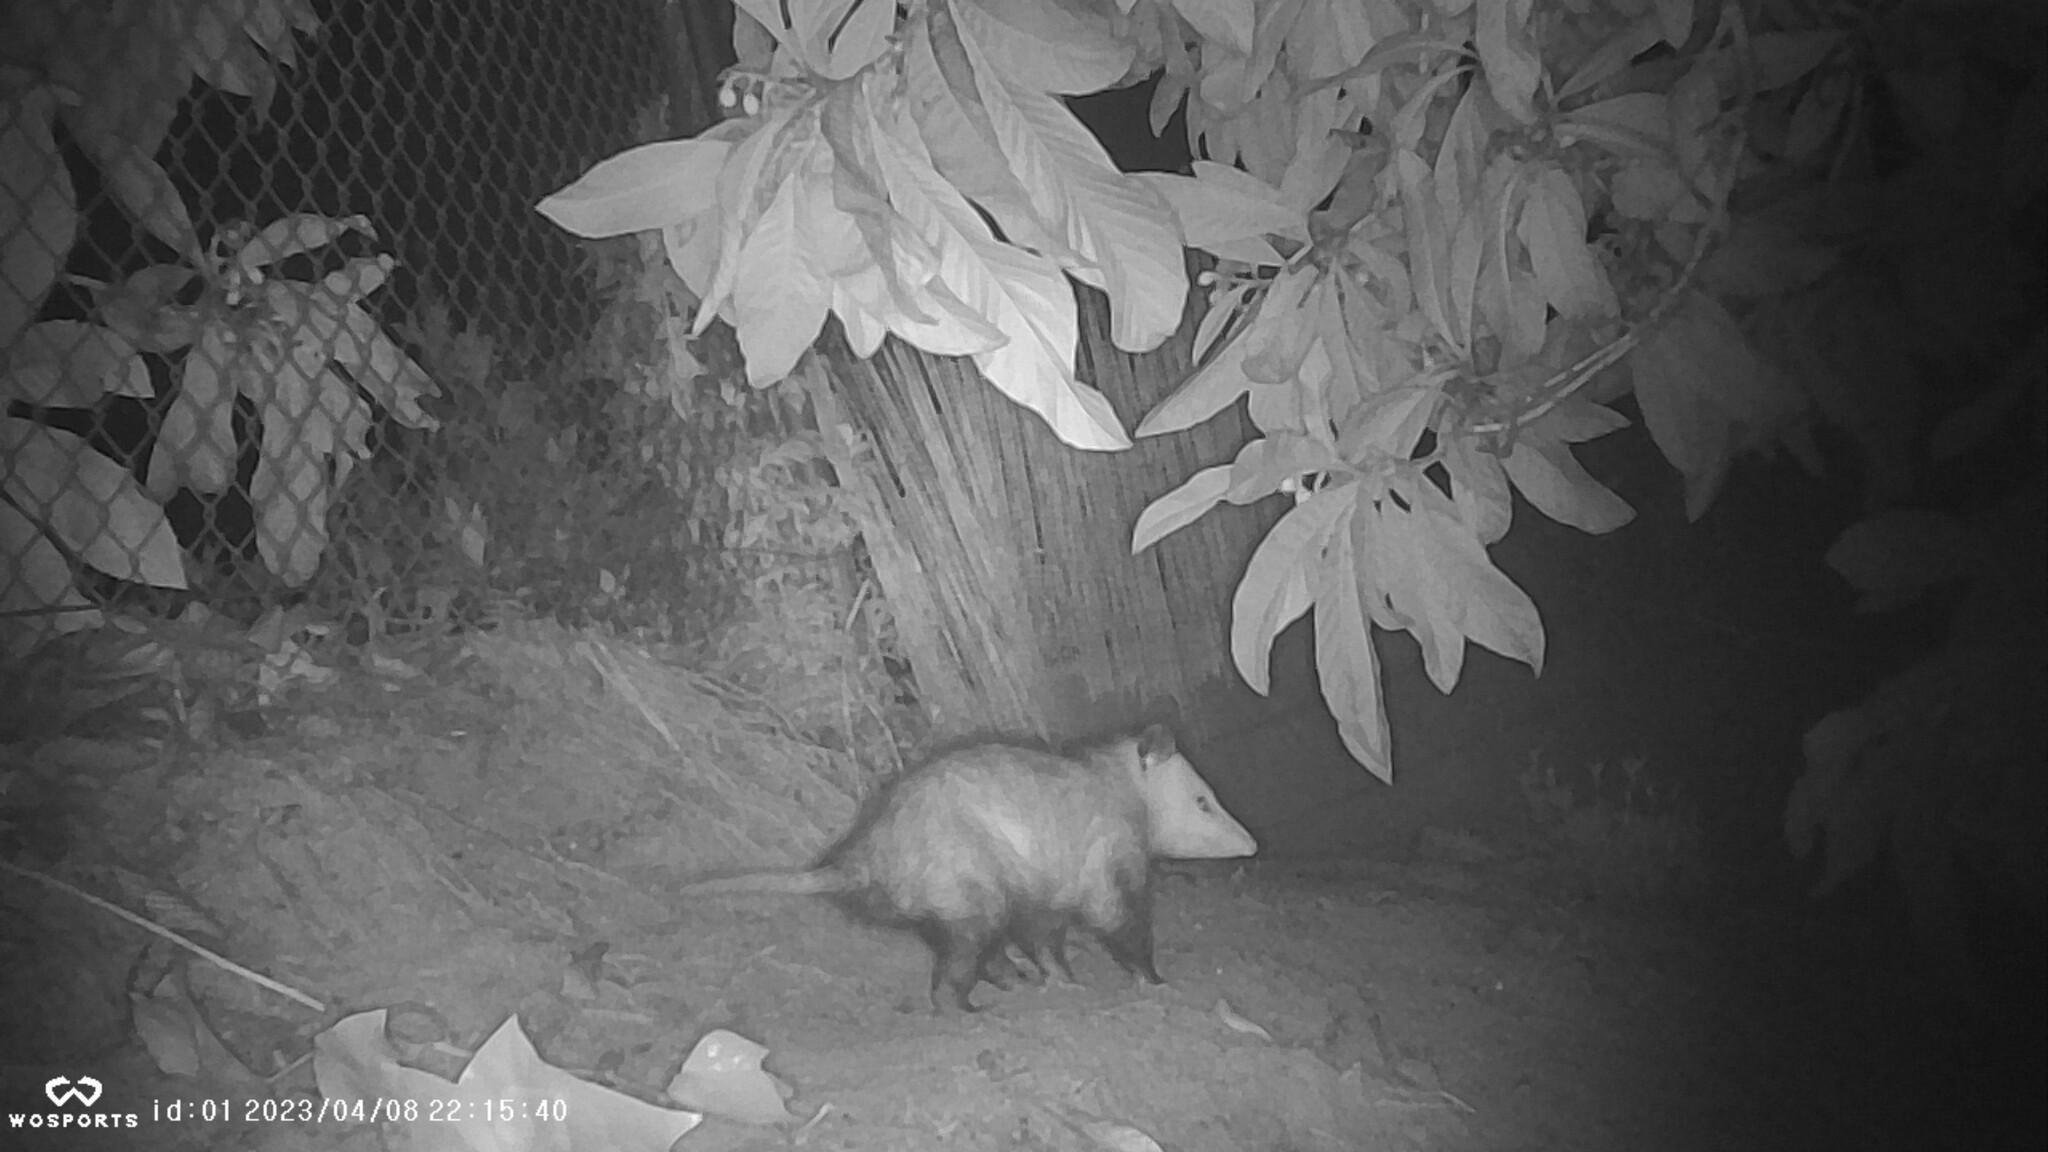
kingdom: Animalia
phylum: Chordata
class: Mammalia
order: Didelphimorphia
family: Didelphidae
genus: Didelphis
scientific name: Didelphis virginiana
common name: Virginia opossum
